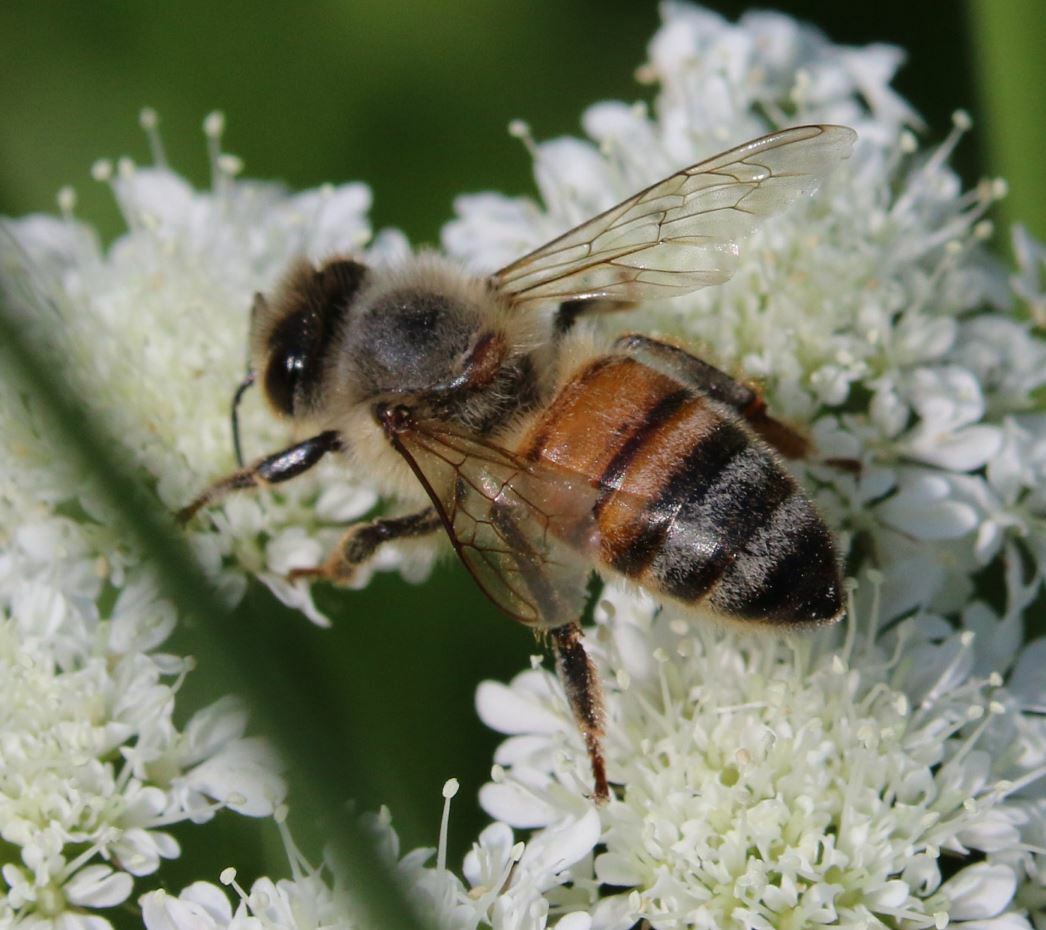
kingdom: Animalia
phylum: Arthropoda
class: Insecta
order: Hymenoptera
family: Apidae
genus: Apis
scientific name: Apis mellifera
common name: Honey bee
